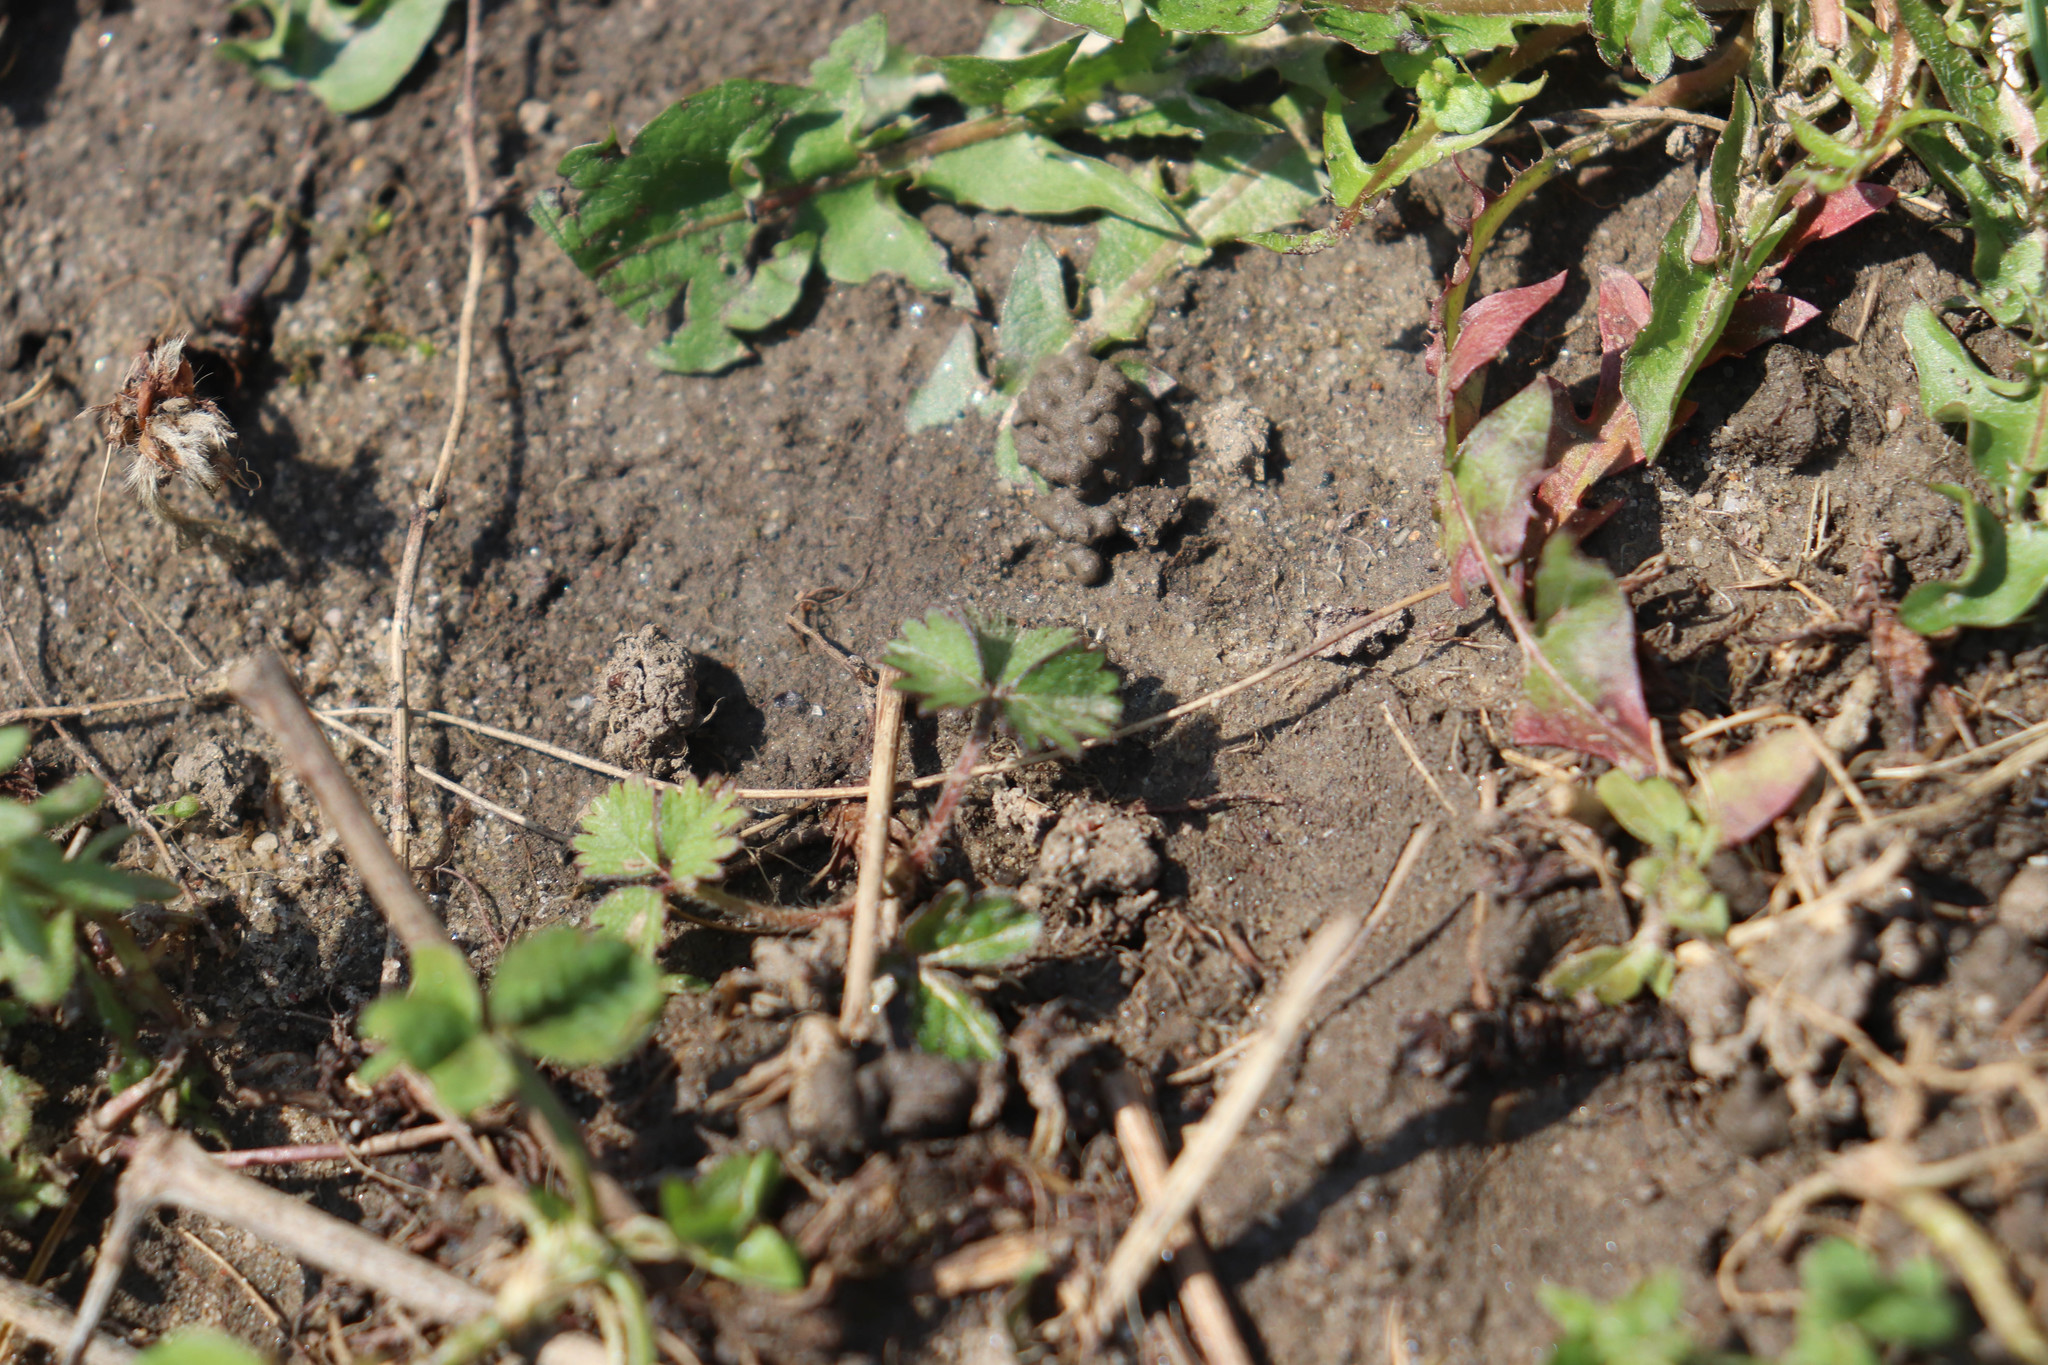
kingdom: Plantae
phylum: Tracheophyta
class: Magnoliopsida
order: Rosales
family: Rosaceae
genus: Potentilla
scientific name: Potentilla indica
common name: Yellow-flowered strawberry
